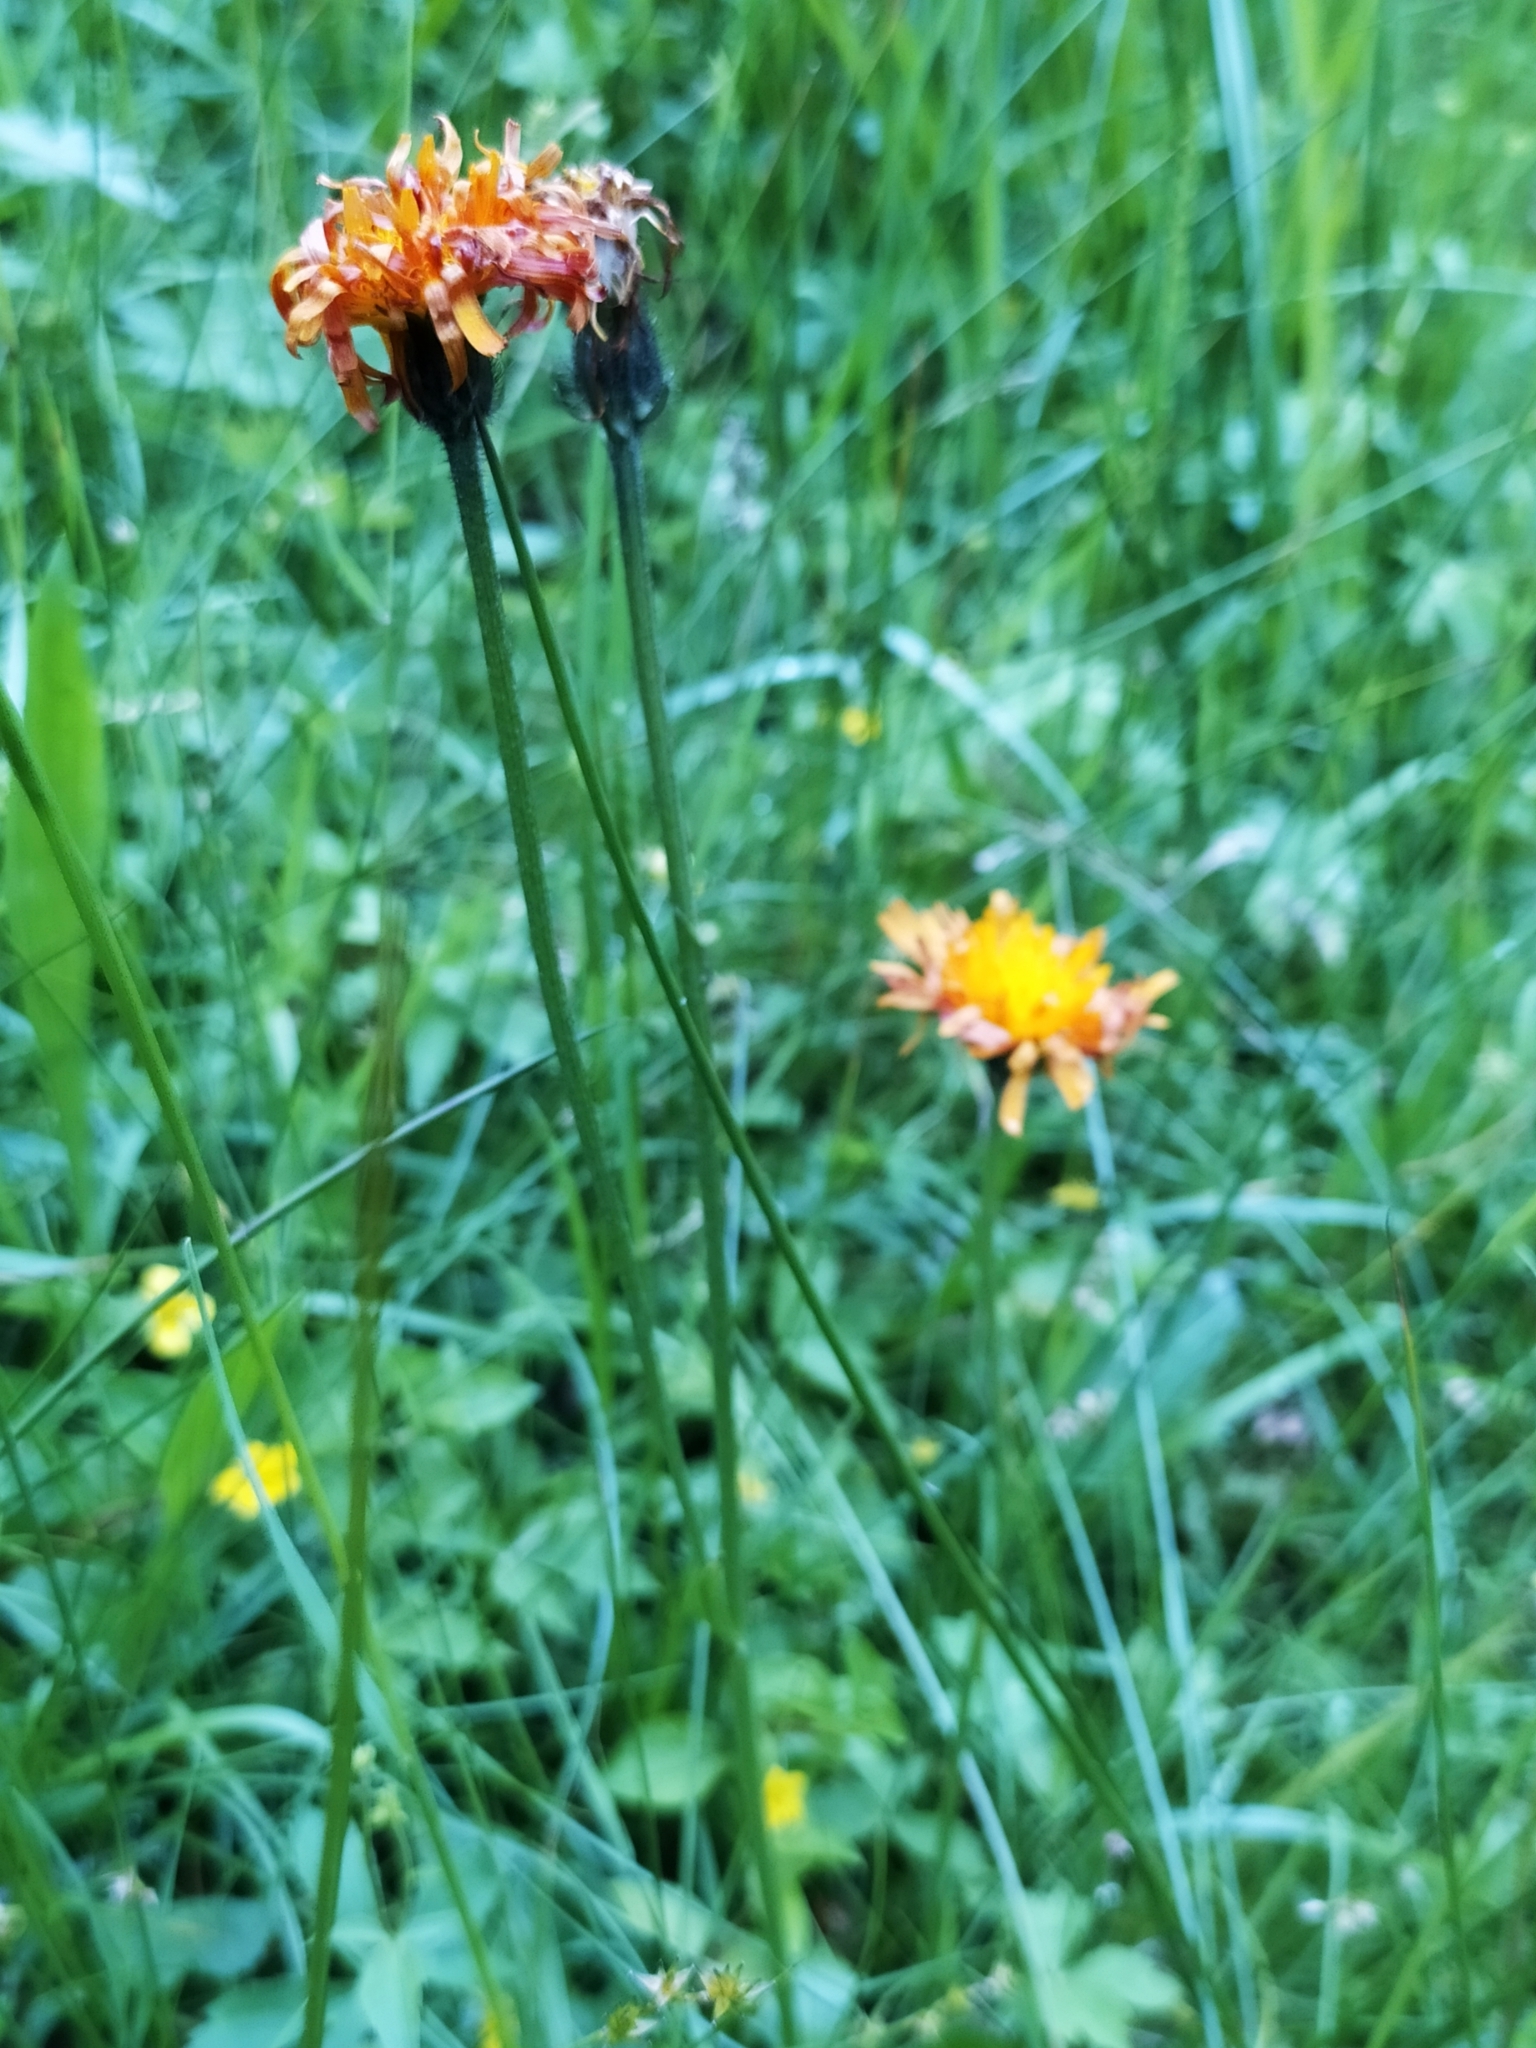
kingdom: Plantae
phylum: Tracheophyta
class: Magnoliopsida
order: Asterales
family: Asteraceae
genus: Crepis
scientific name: Crepis aurea
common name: Golden hawk's-beard
